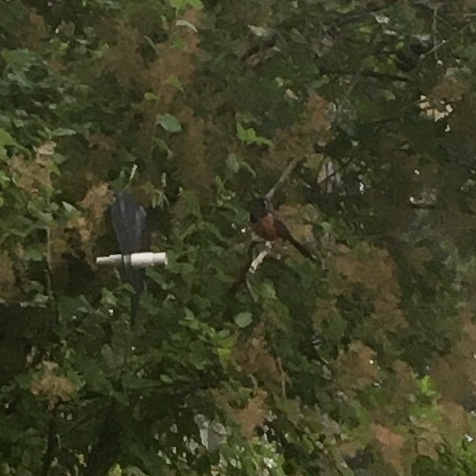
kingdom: Animalia
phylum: Chordata
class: Aves
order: Passeriformes
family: Passerellidae
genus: Pipilo
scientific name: Pipilo maculatus
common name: Spotted towhee
